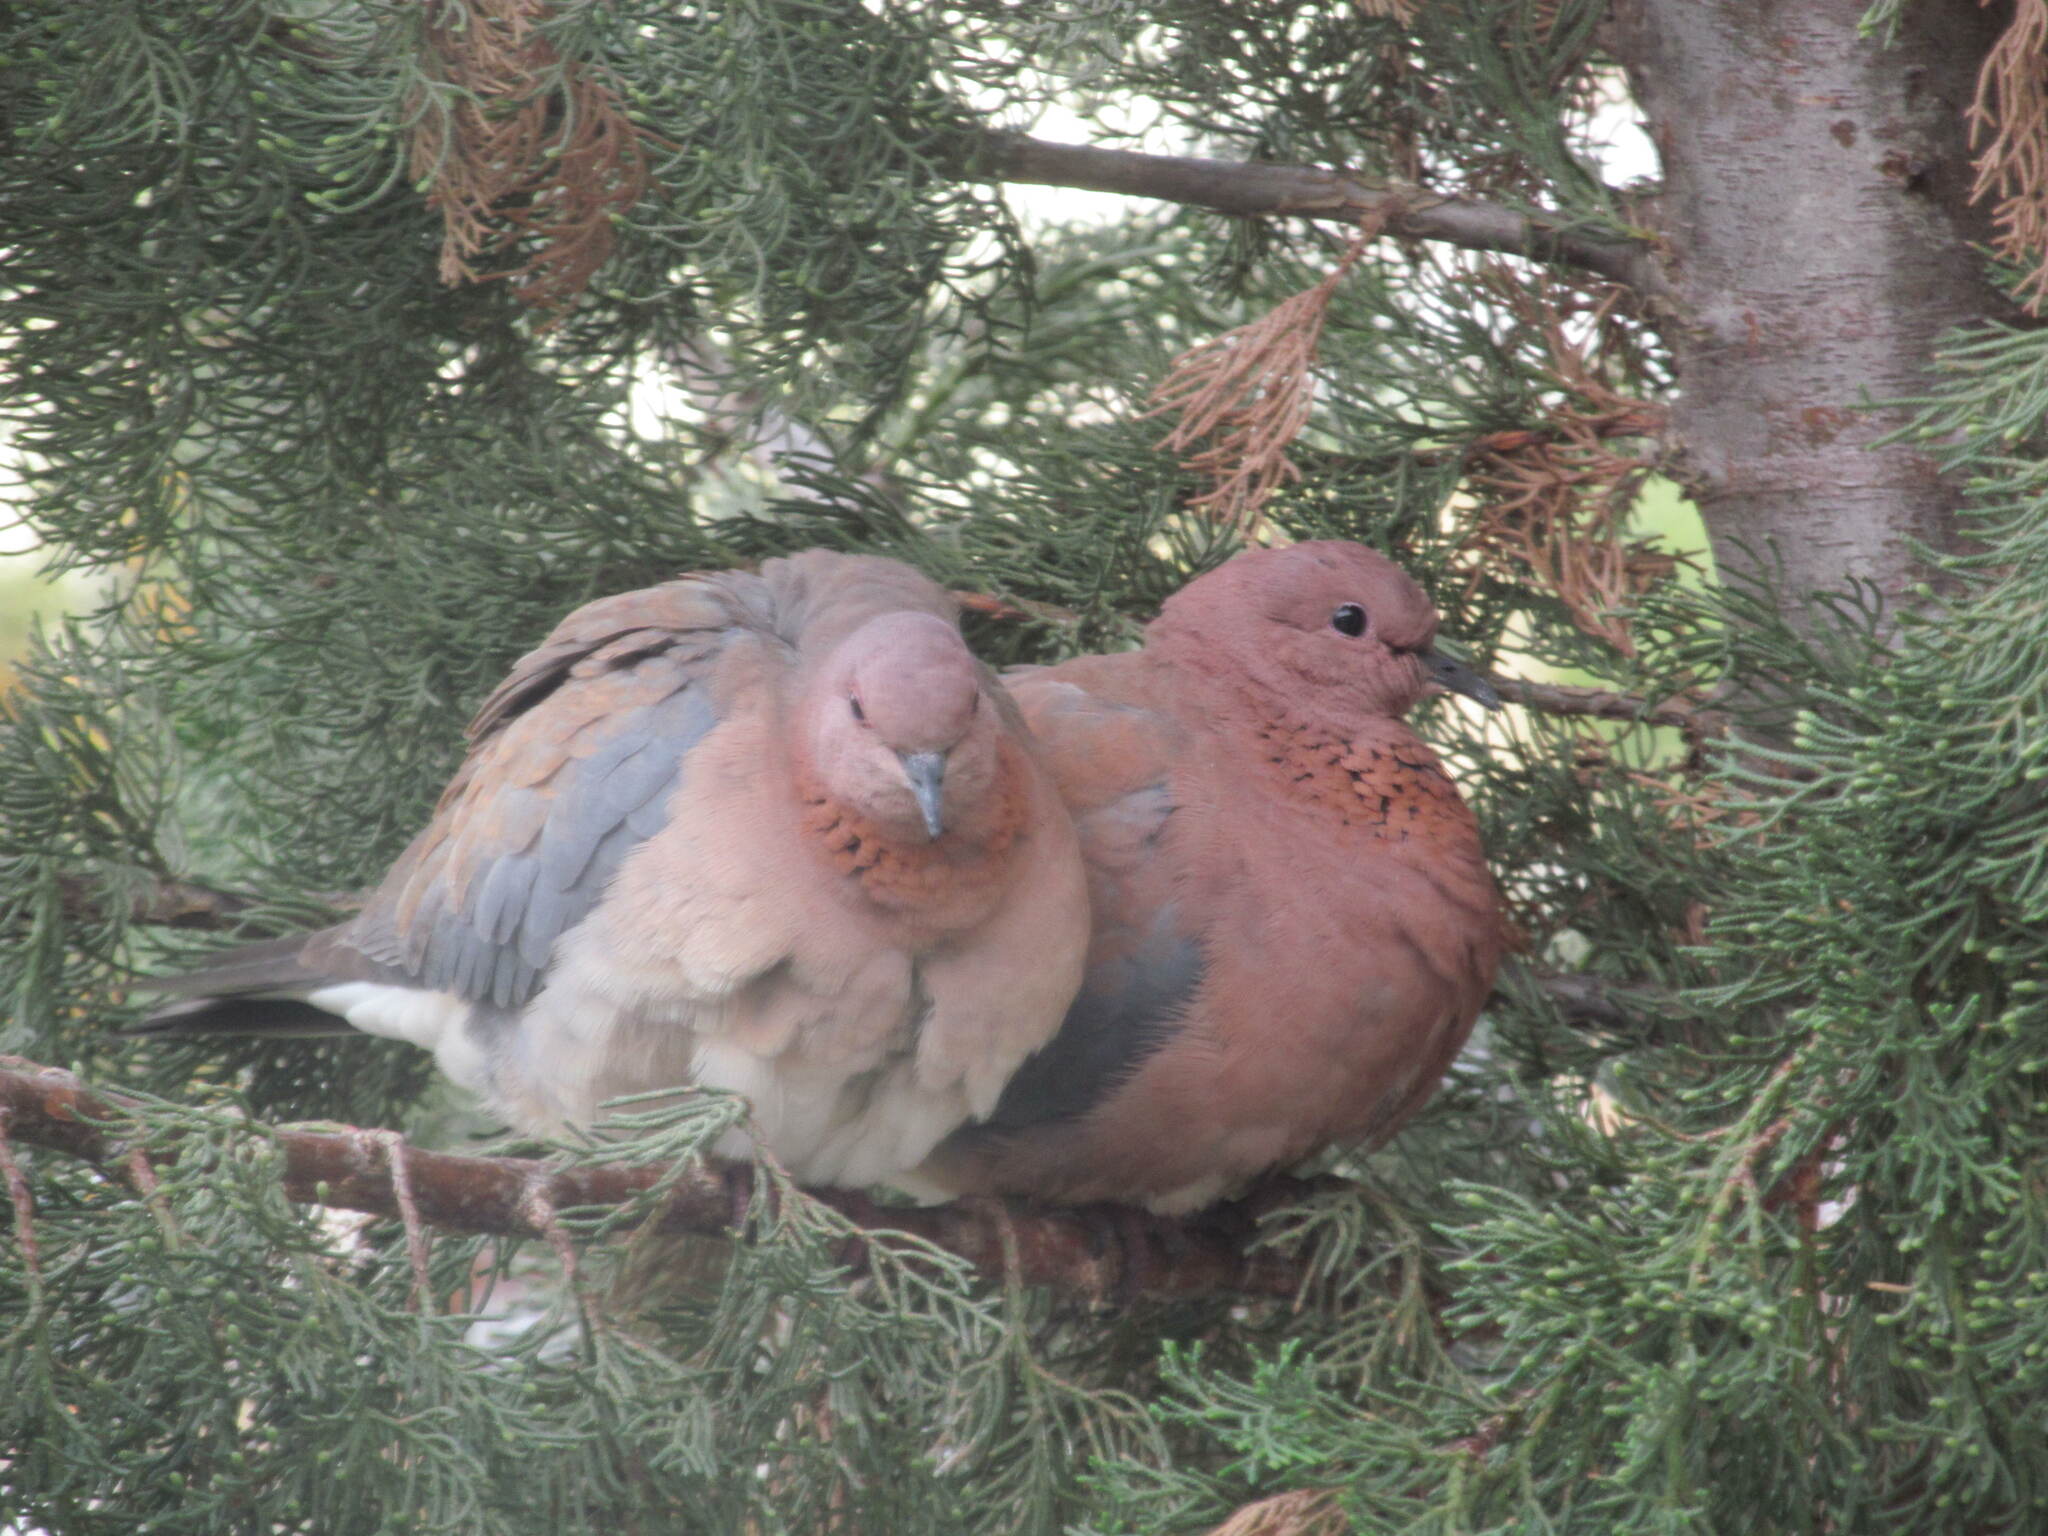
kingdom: Animalia
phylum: Chordata
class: Aves
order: Columbiformes
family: Columbidae
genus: Spilopelia
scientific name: Spilopelia senegalensis
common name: Laughing dove
